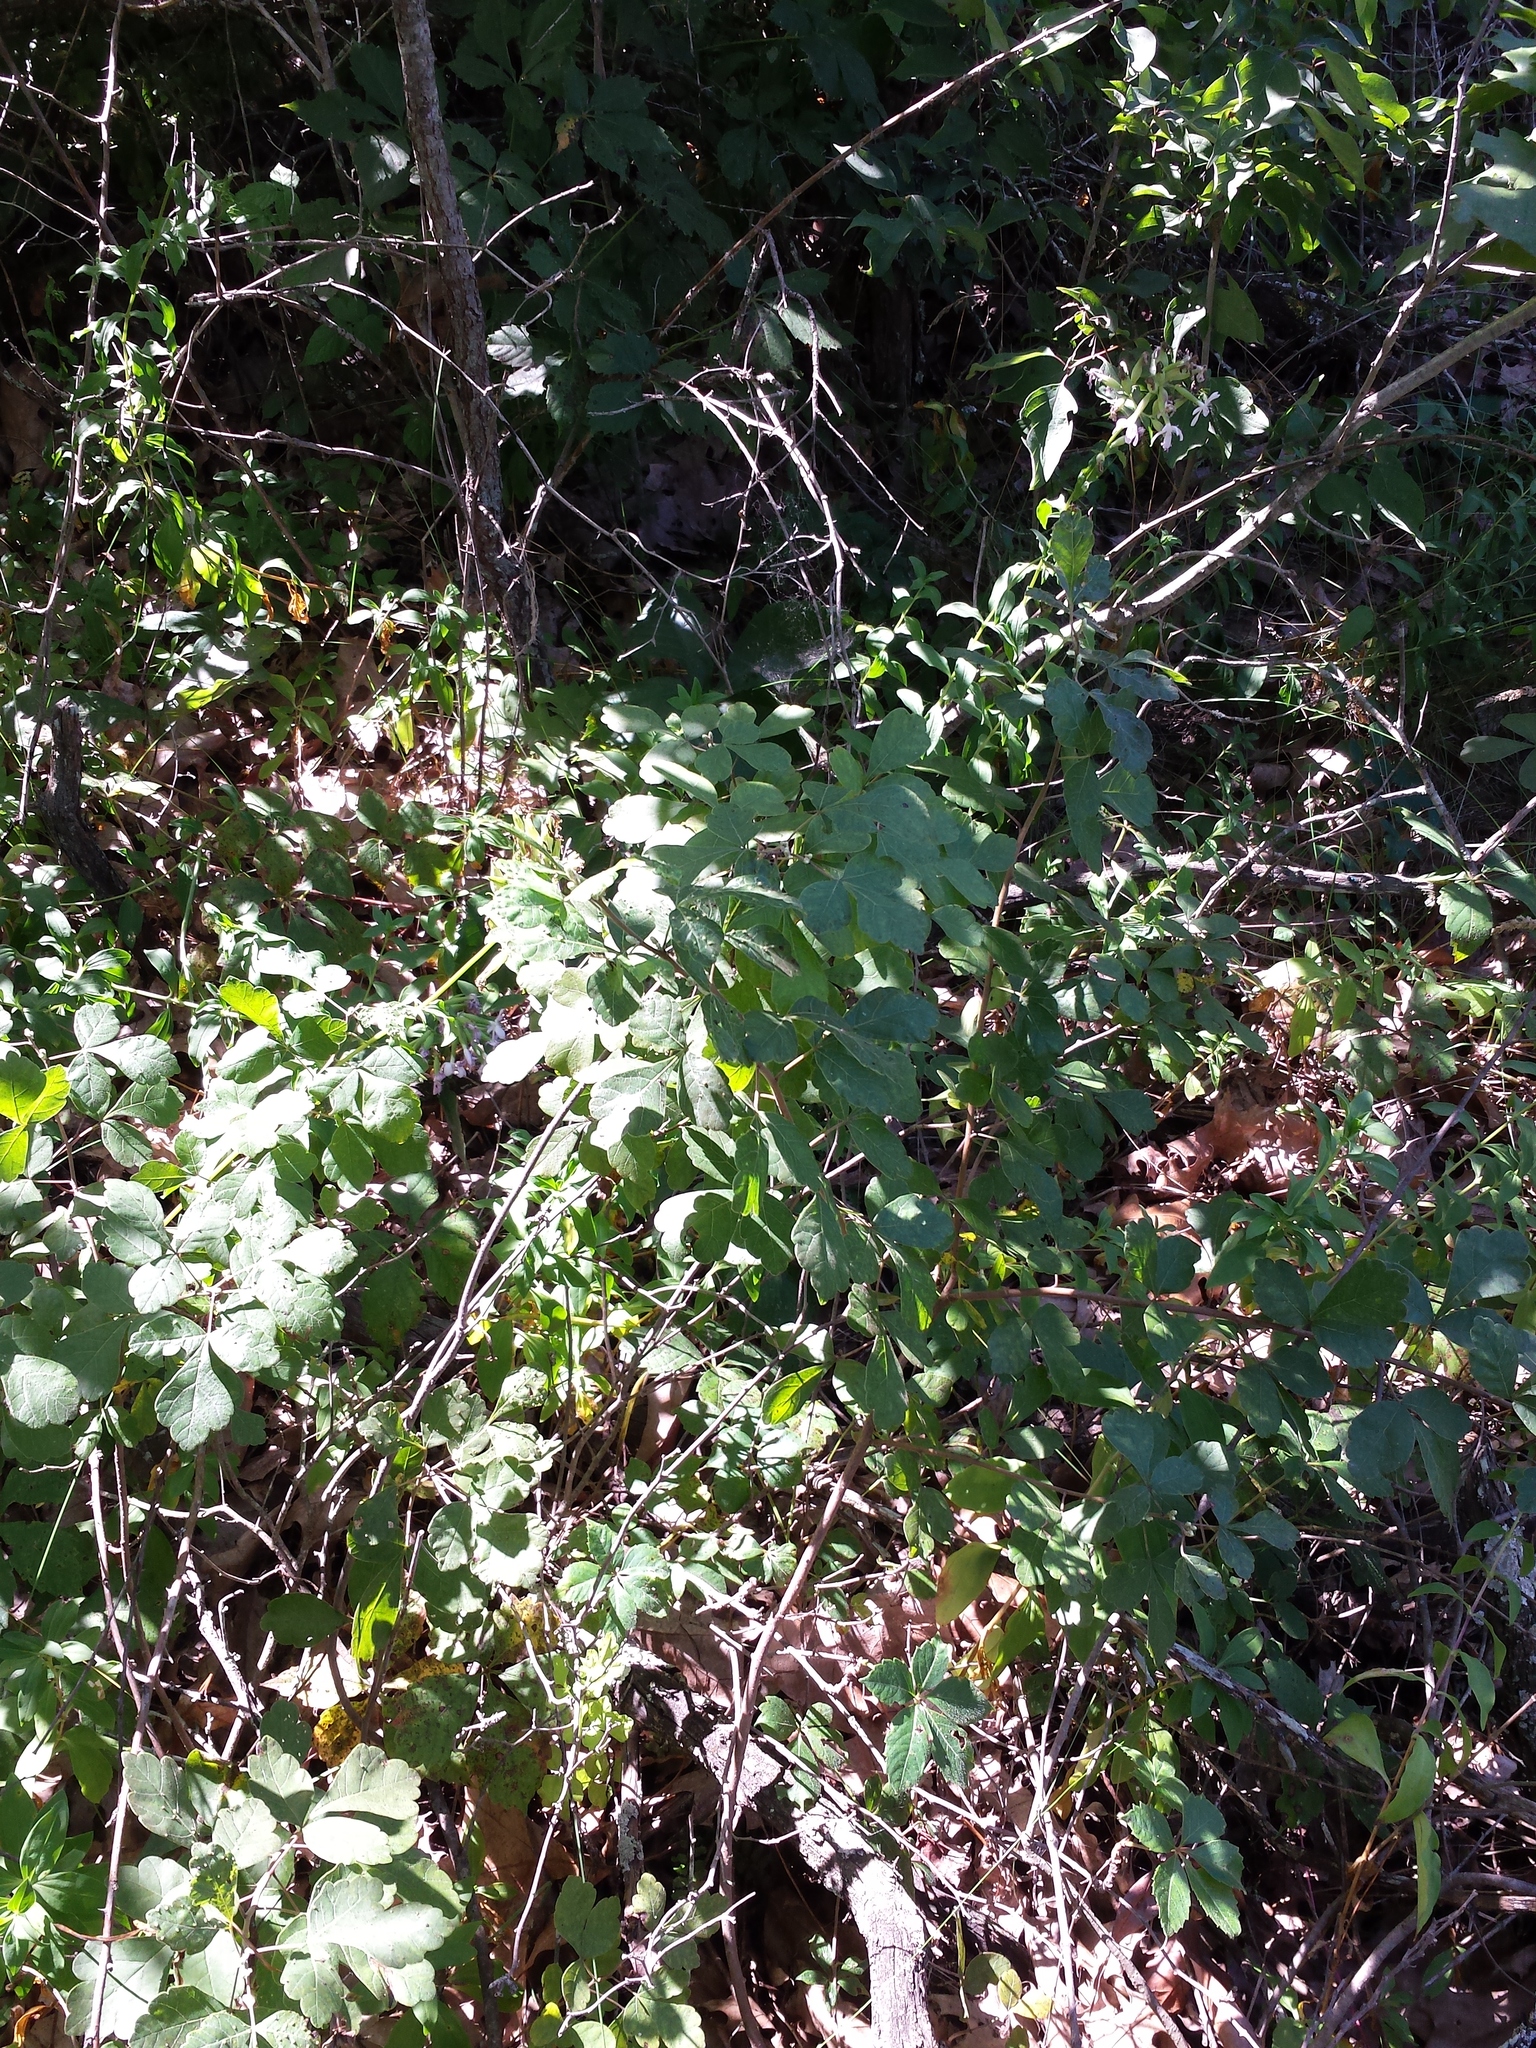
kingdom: Plantae
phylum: Tracheophyta
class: Magnoliopsida
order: Sapindales
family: Anacardiaceae
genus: Rhus
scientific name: Rhus aromatica
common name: Aromatic sumac
